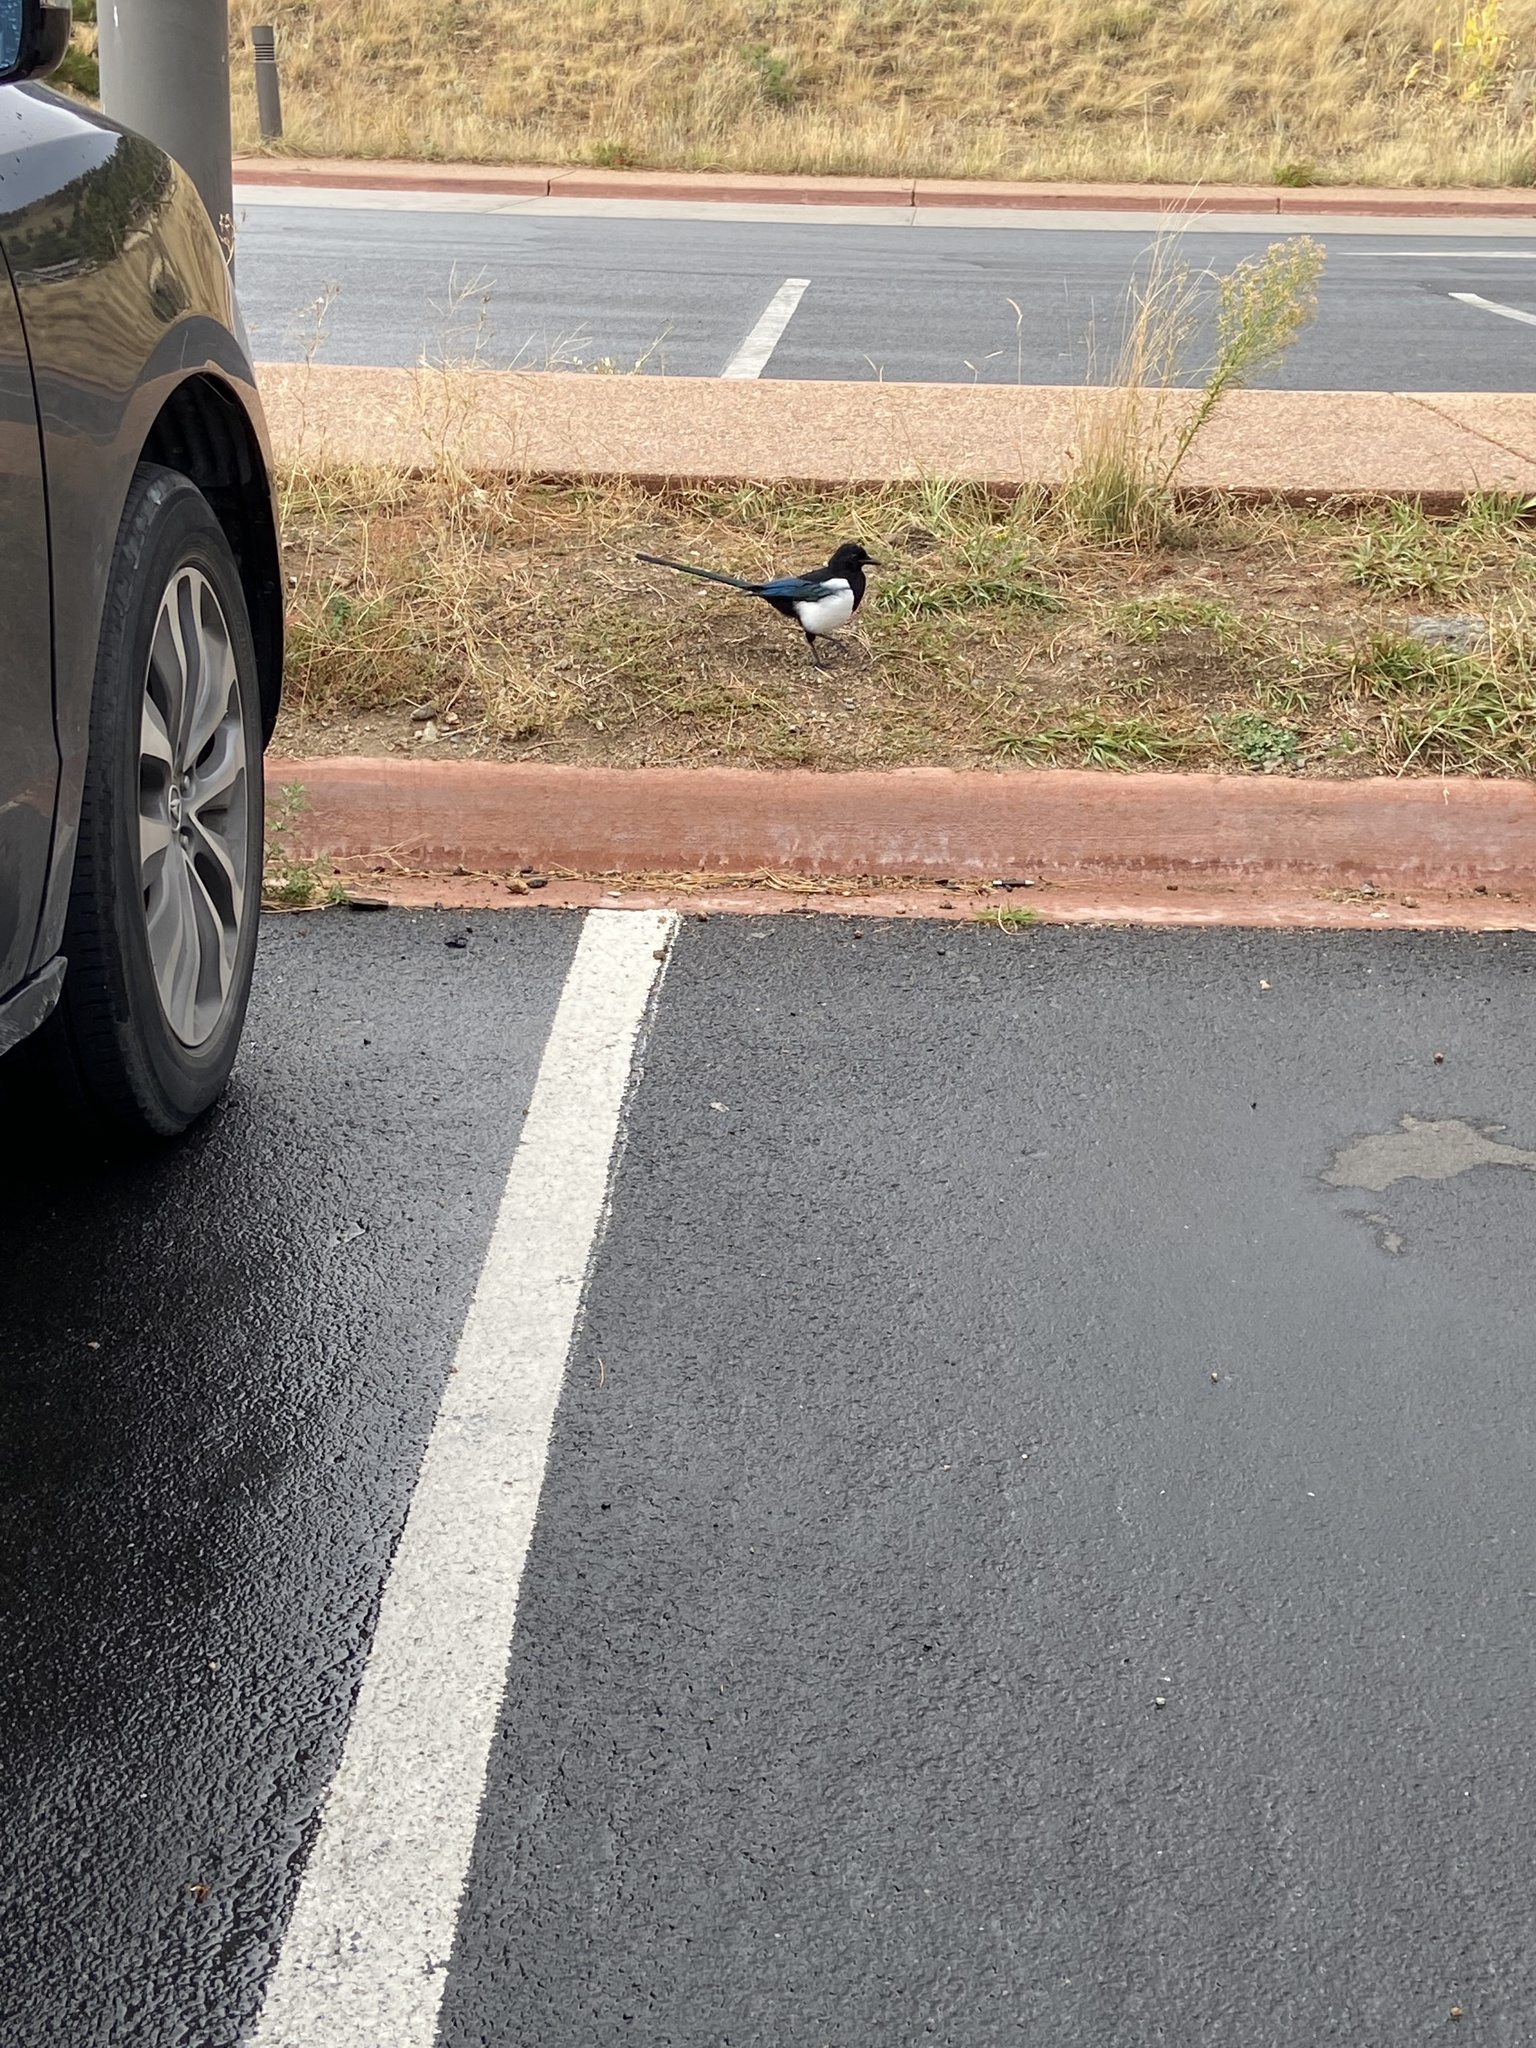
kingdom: Animalia
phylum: Chordata
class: Aves
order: Passeriformes
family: Corvidae
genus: Pica
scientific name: Pica hudsonia
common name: Black-billed magpie
